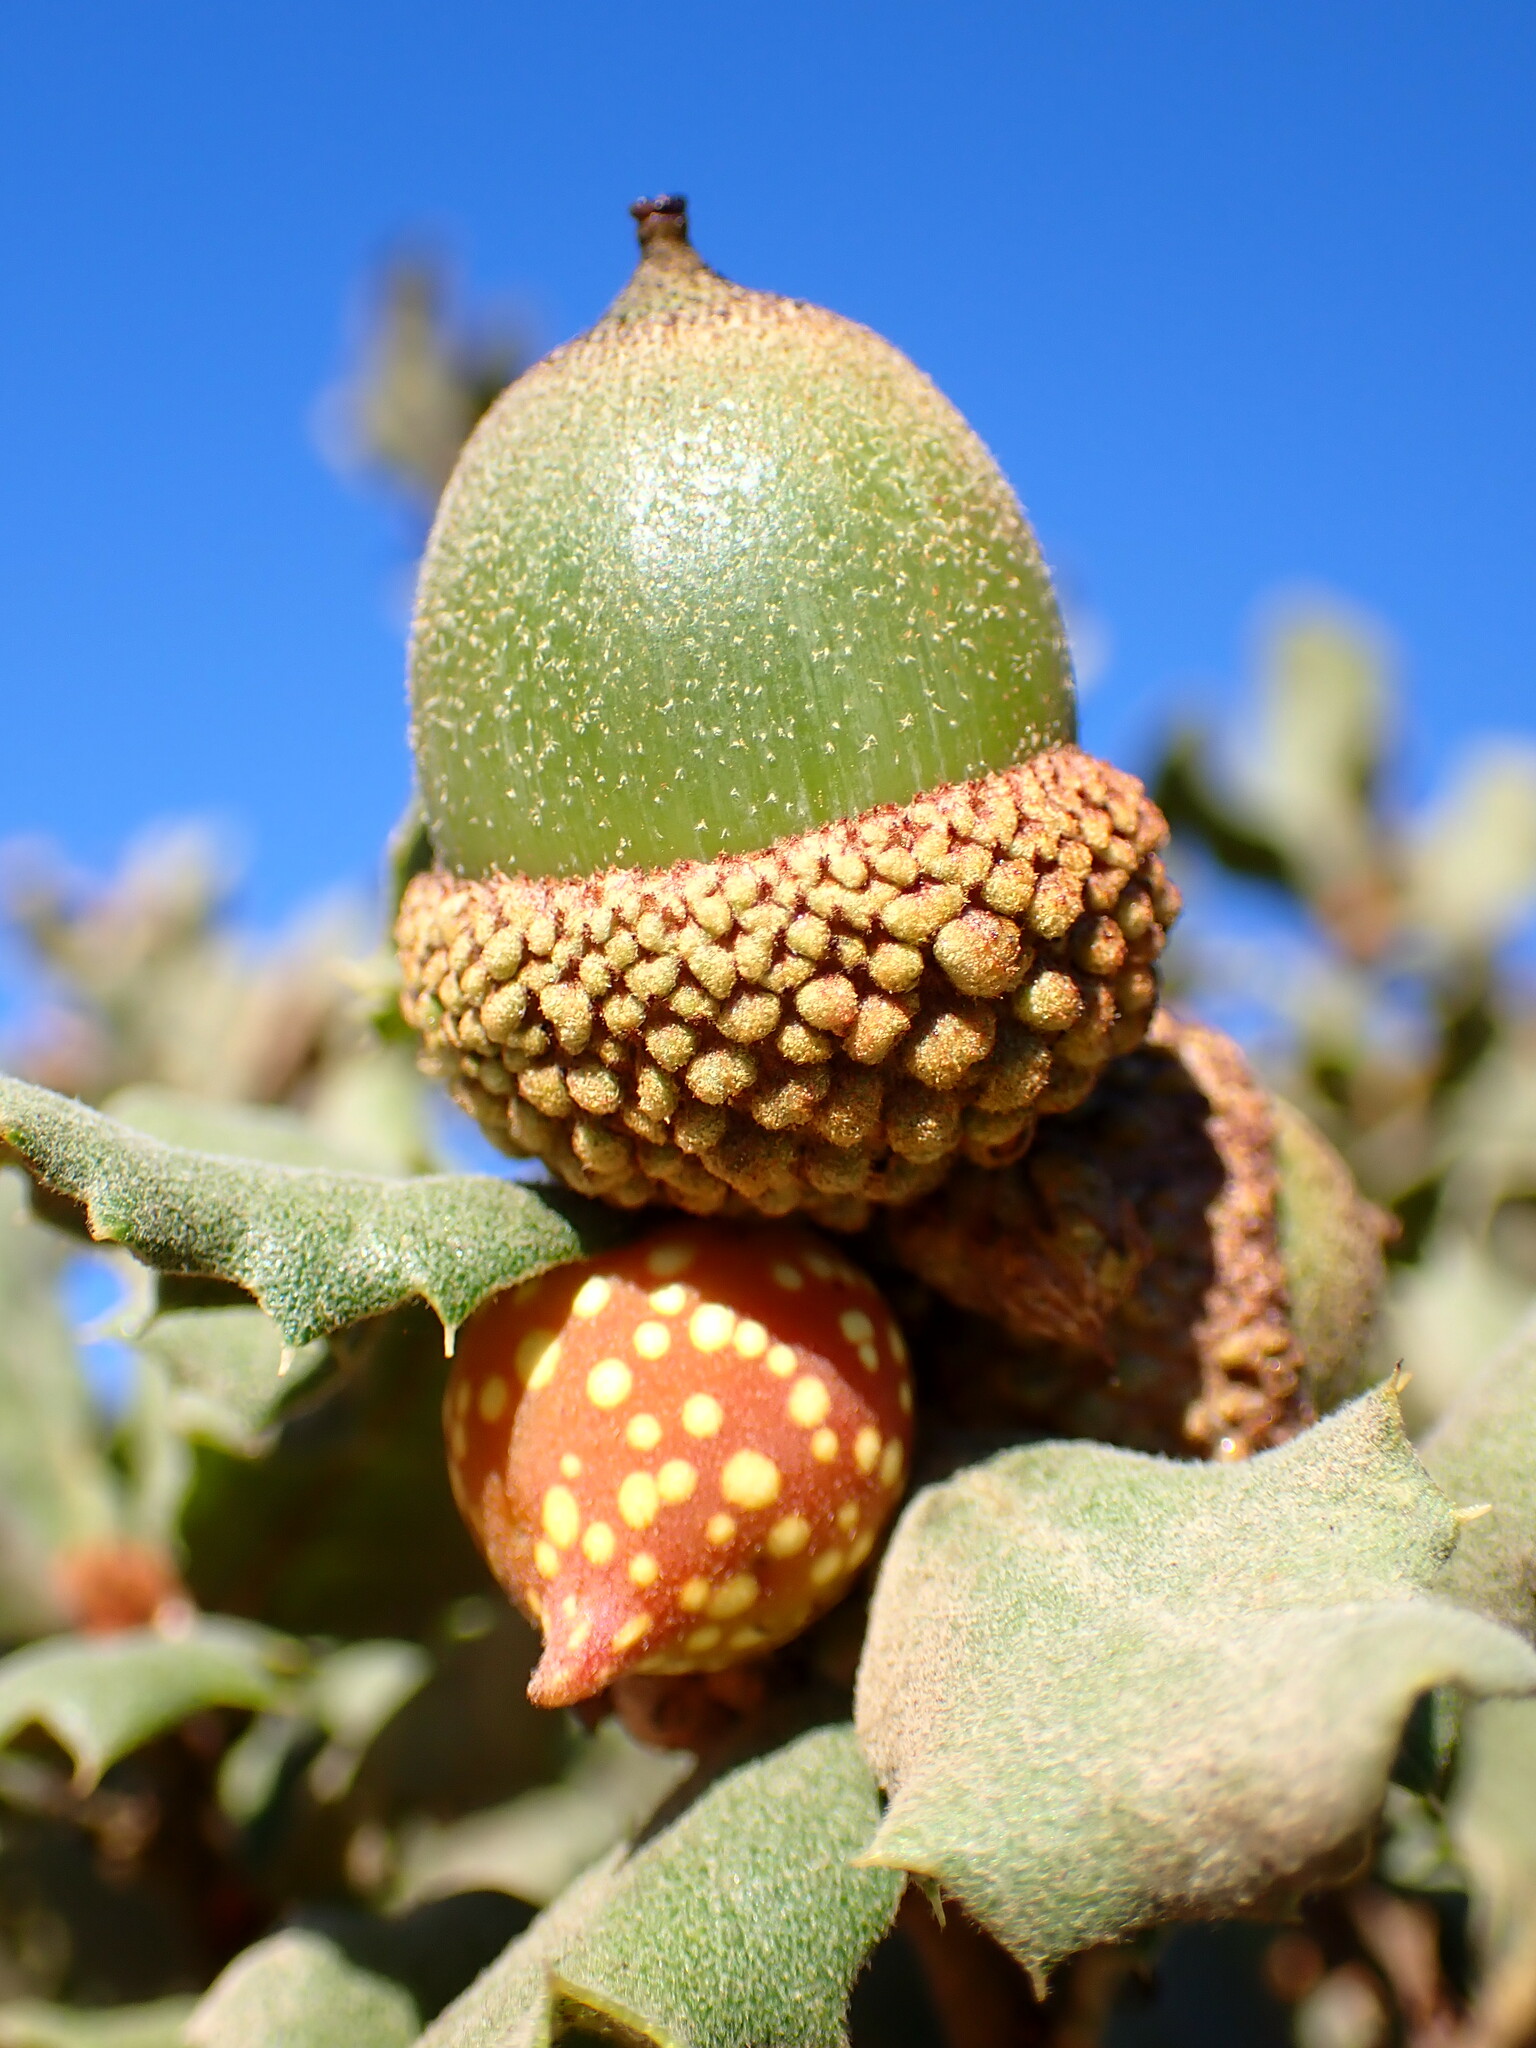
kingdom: Animalia
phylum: Arthropoda
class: Insecta
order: Hymenoptera
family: Cynipidae
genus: Burnettweldia
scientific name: Burnettweldia
